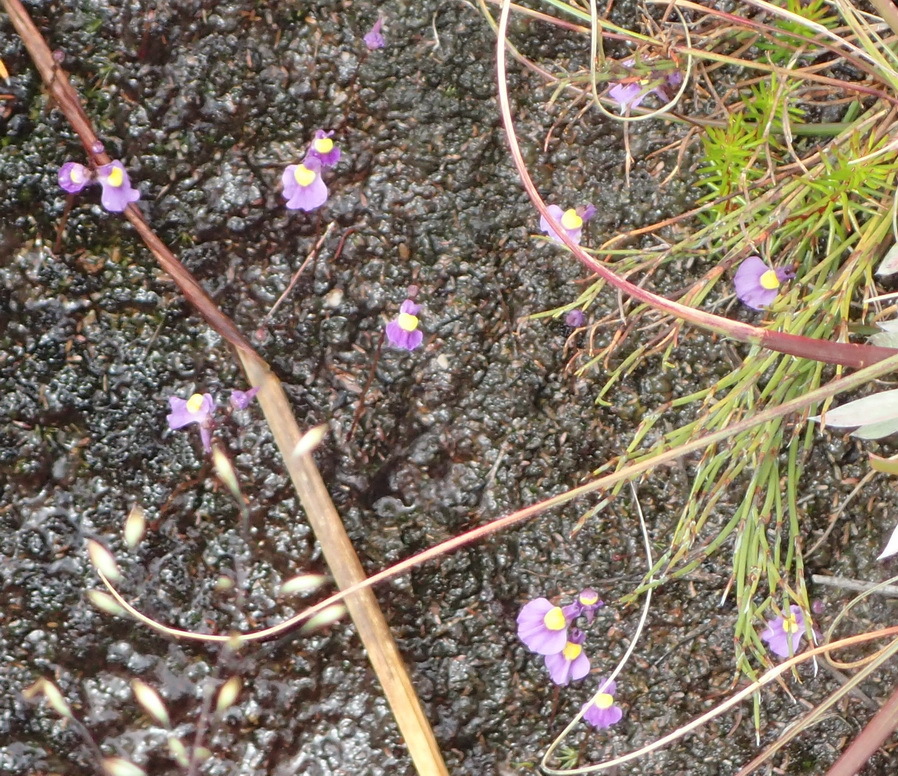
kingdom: Plantae
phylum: Tracheophyta
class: Magnoliopsida
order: Lamiales
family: Lentibulariaceae
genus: Utricularia
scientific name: Utricularia welwitschii
